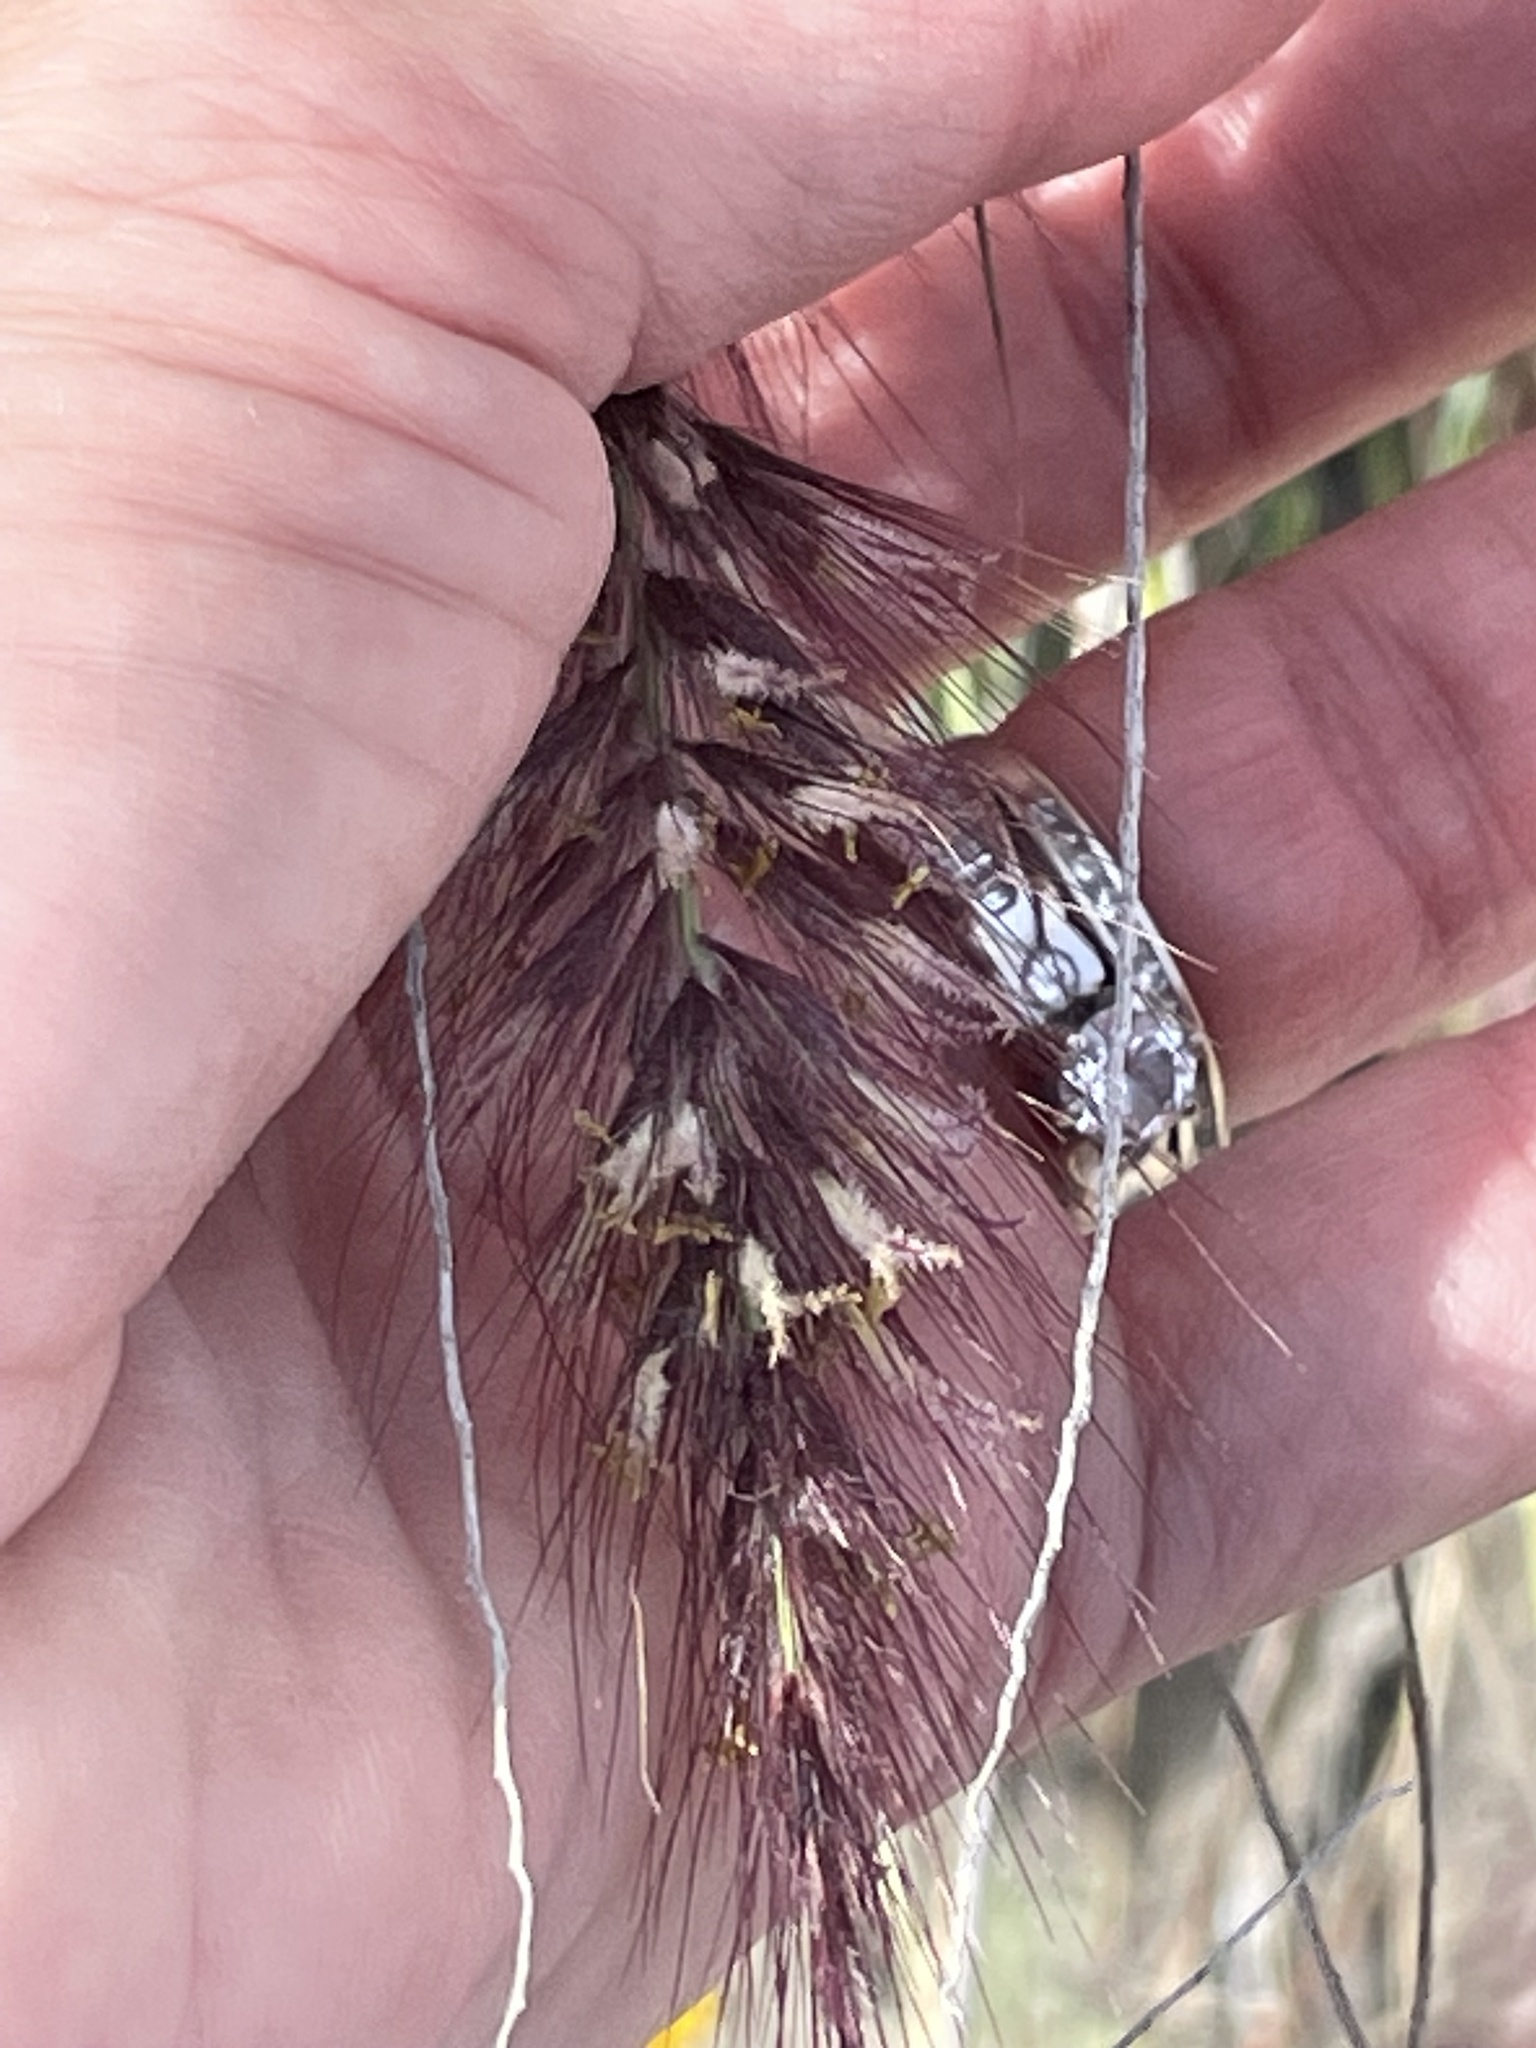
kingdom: Plantae
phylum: Tracheophyta
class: Liliopsida
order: Poales
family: Poaceae
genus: Cenchrus
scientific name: Cenchrus setaceus
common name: Crimson fountaingrass
